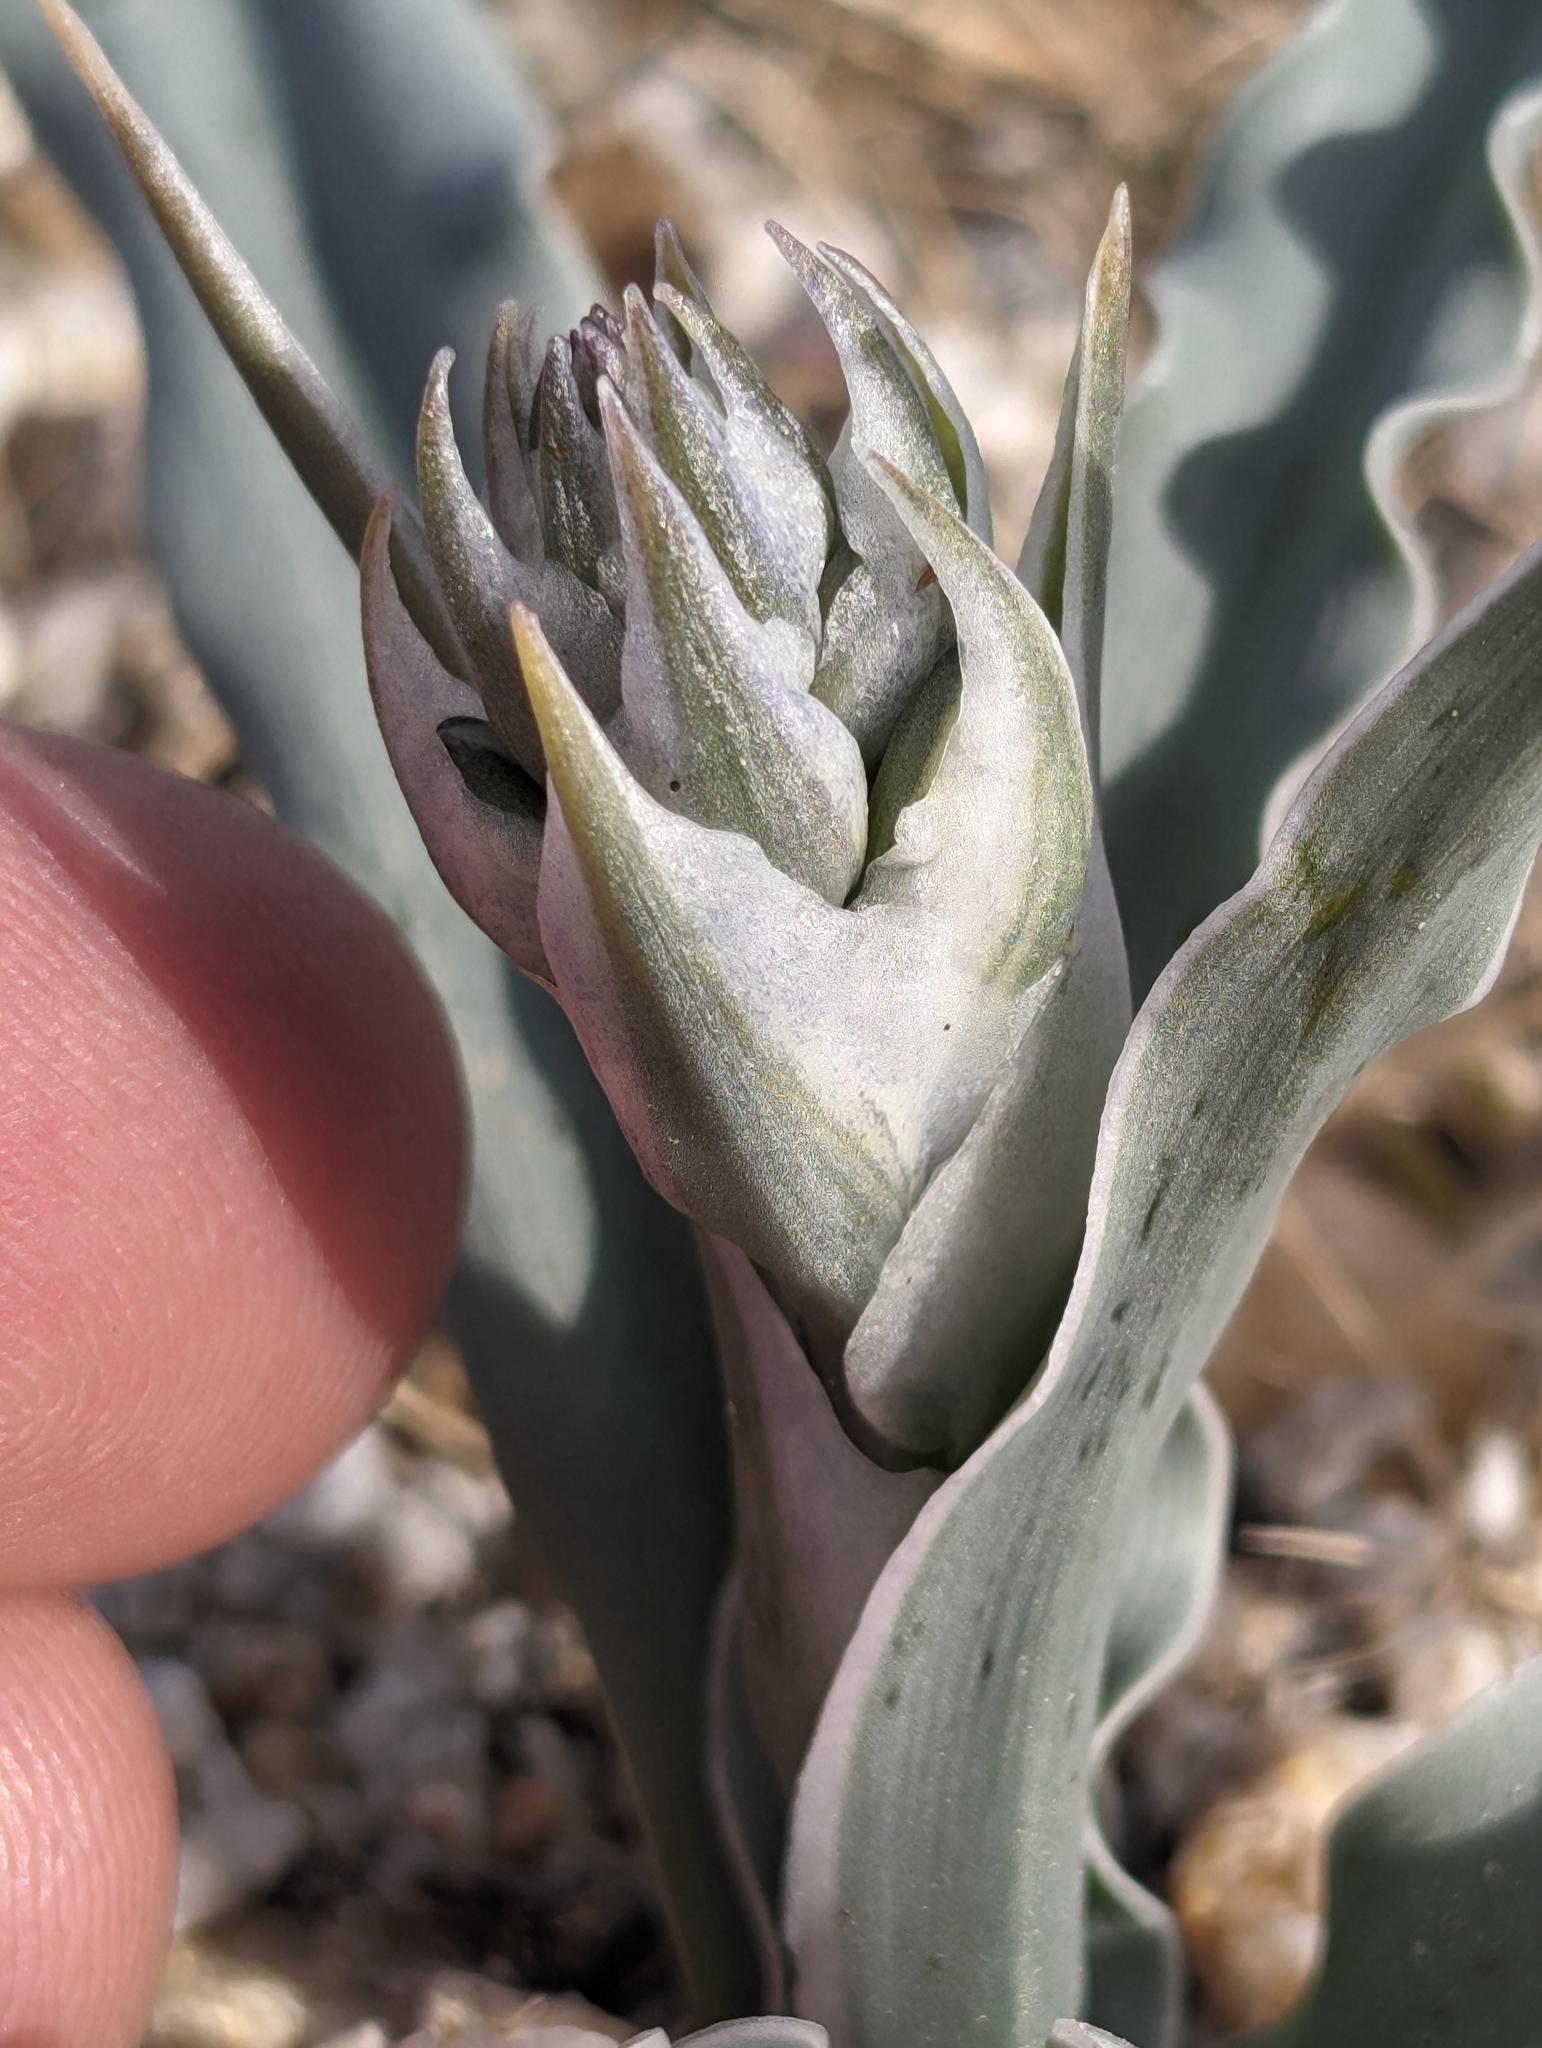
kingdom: Plantae
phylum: Tracheophyta
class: Liliopsida
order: Asparagales
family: Asparagaceae
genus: Hesperocallis
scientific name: Hesperocallis undulata
